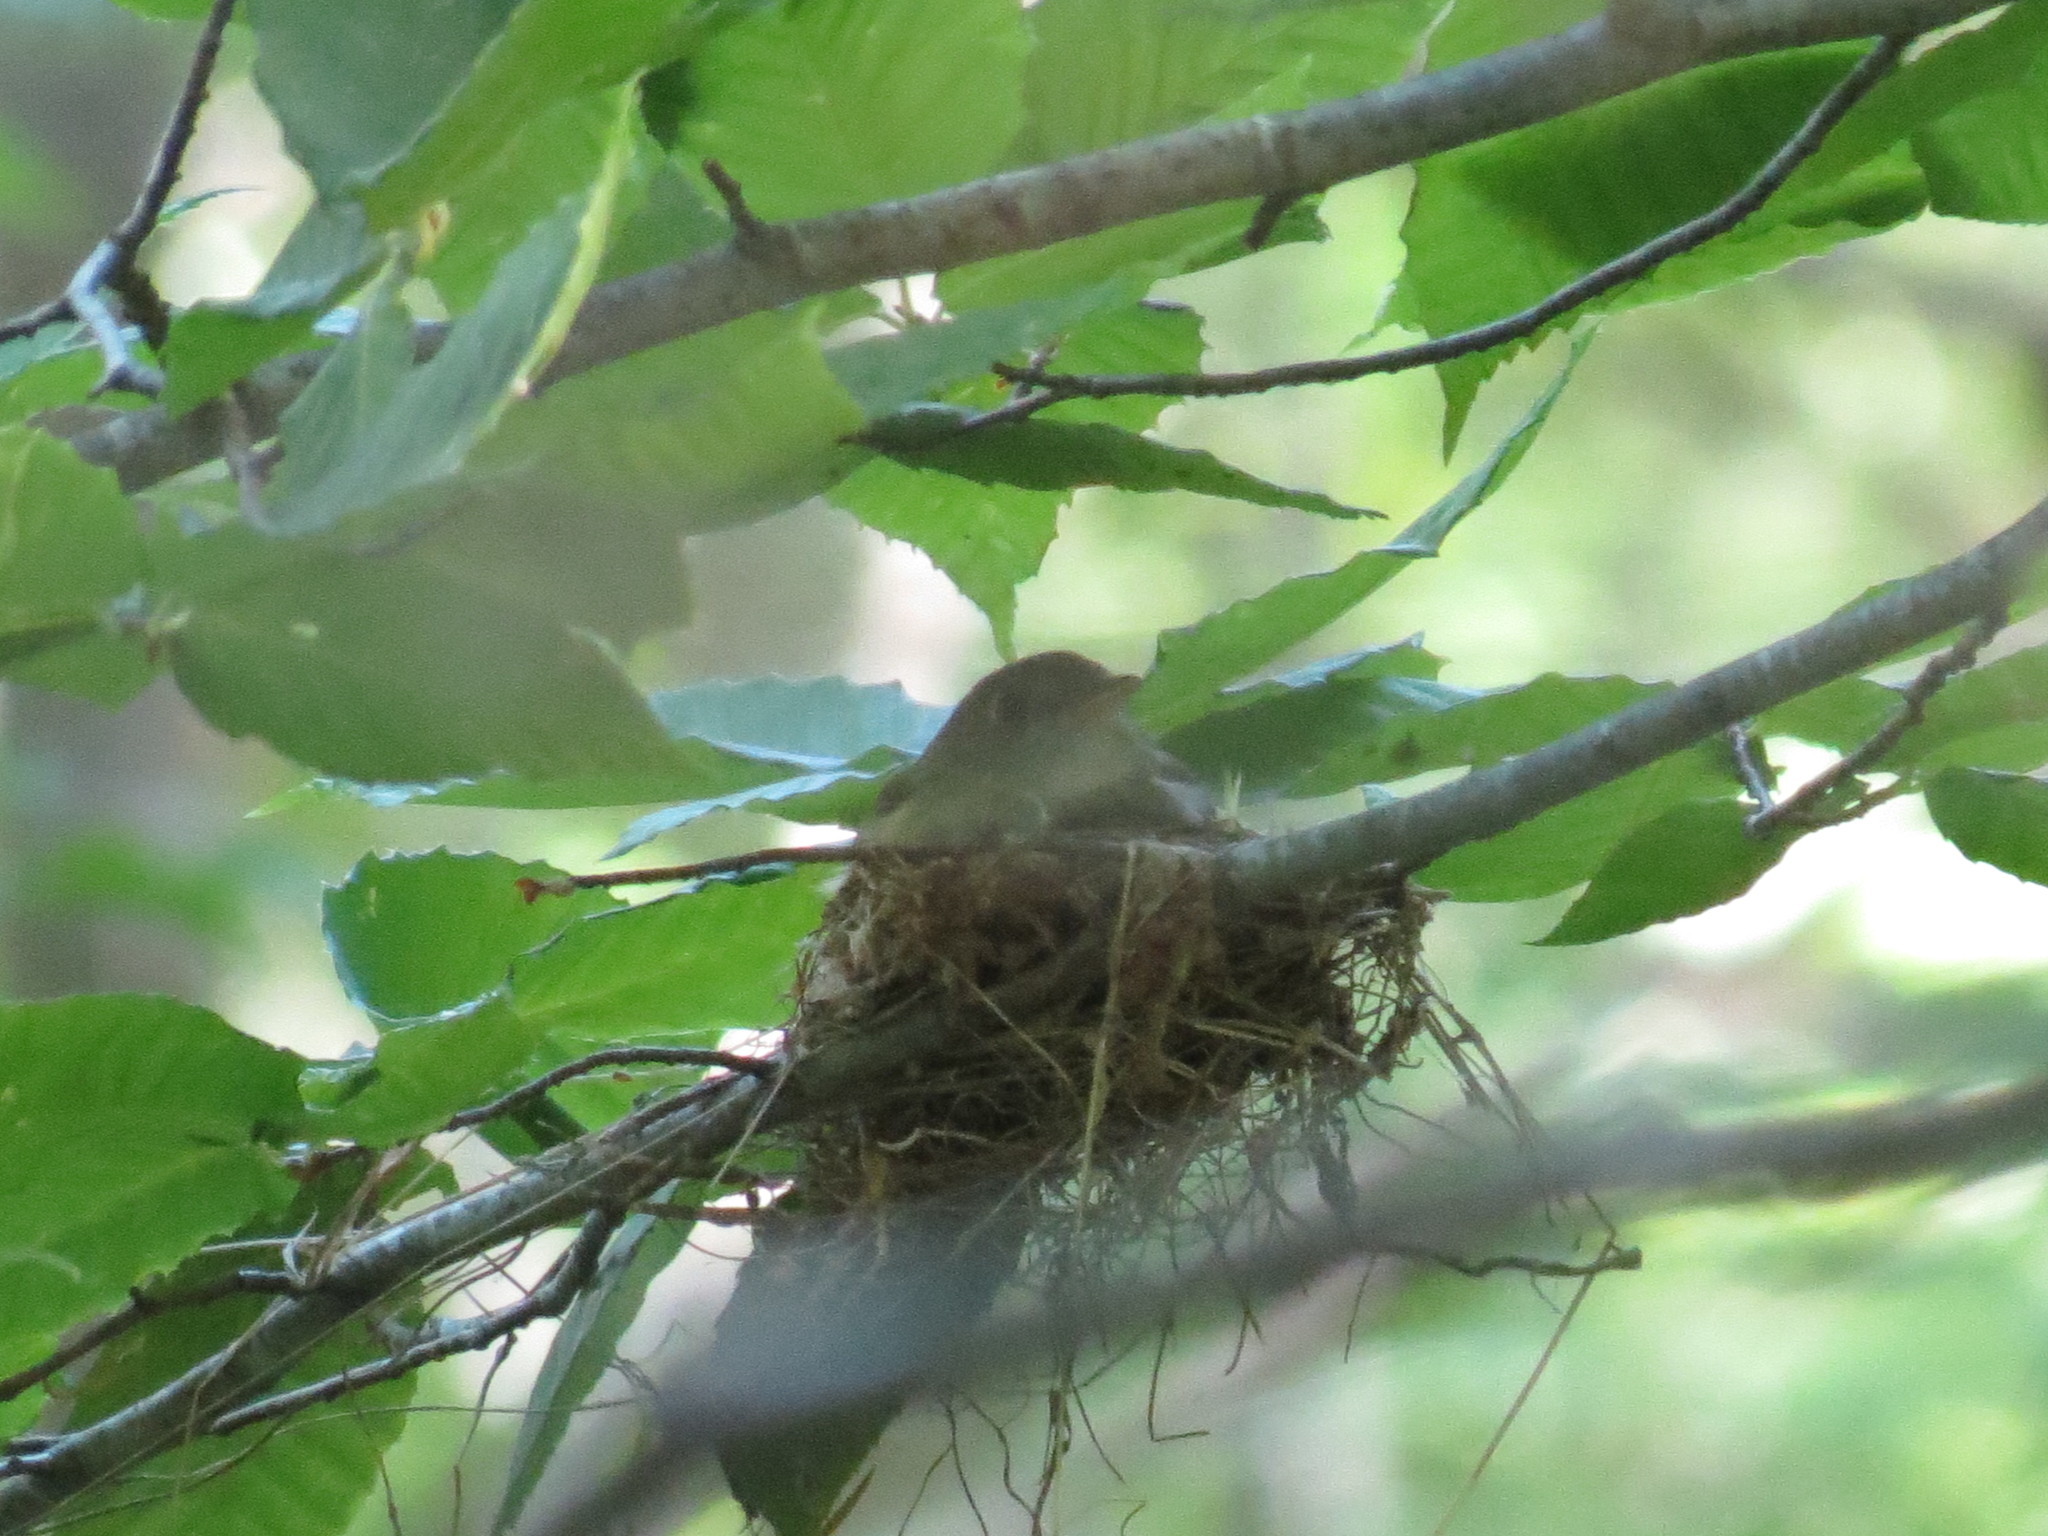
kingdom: Animalia
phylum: Chordata
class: Aves
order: Passeriformes
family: Tyrannidae
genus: Empidonax
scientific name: Empidonax virescens
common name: Acadian flycatcher
